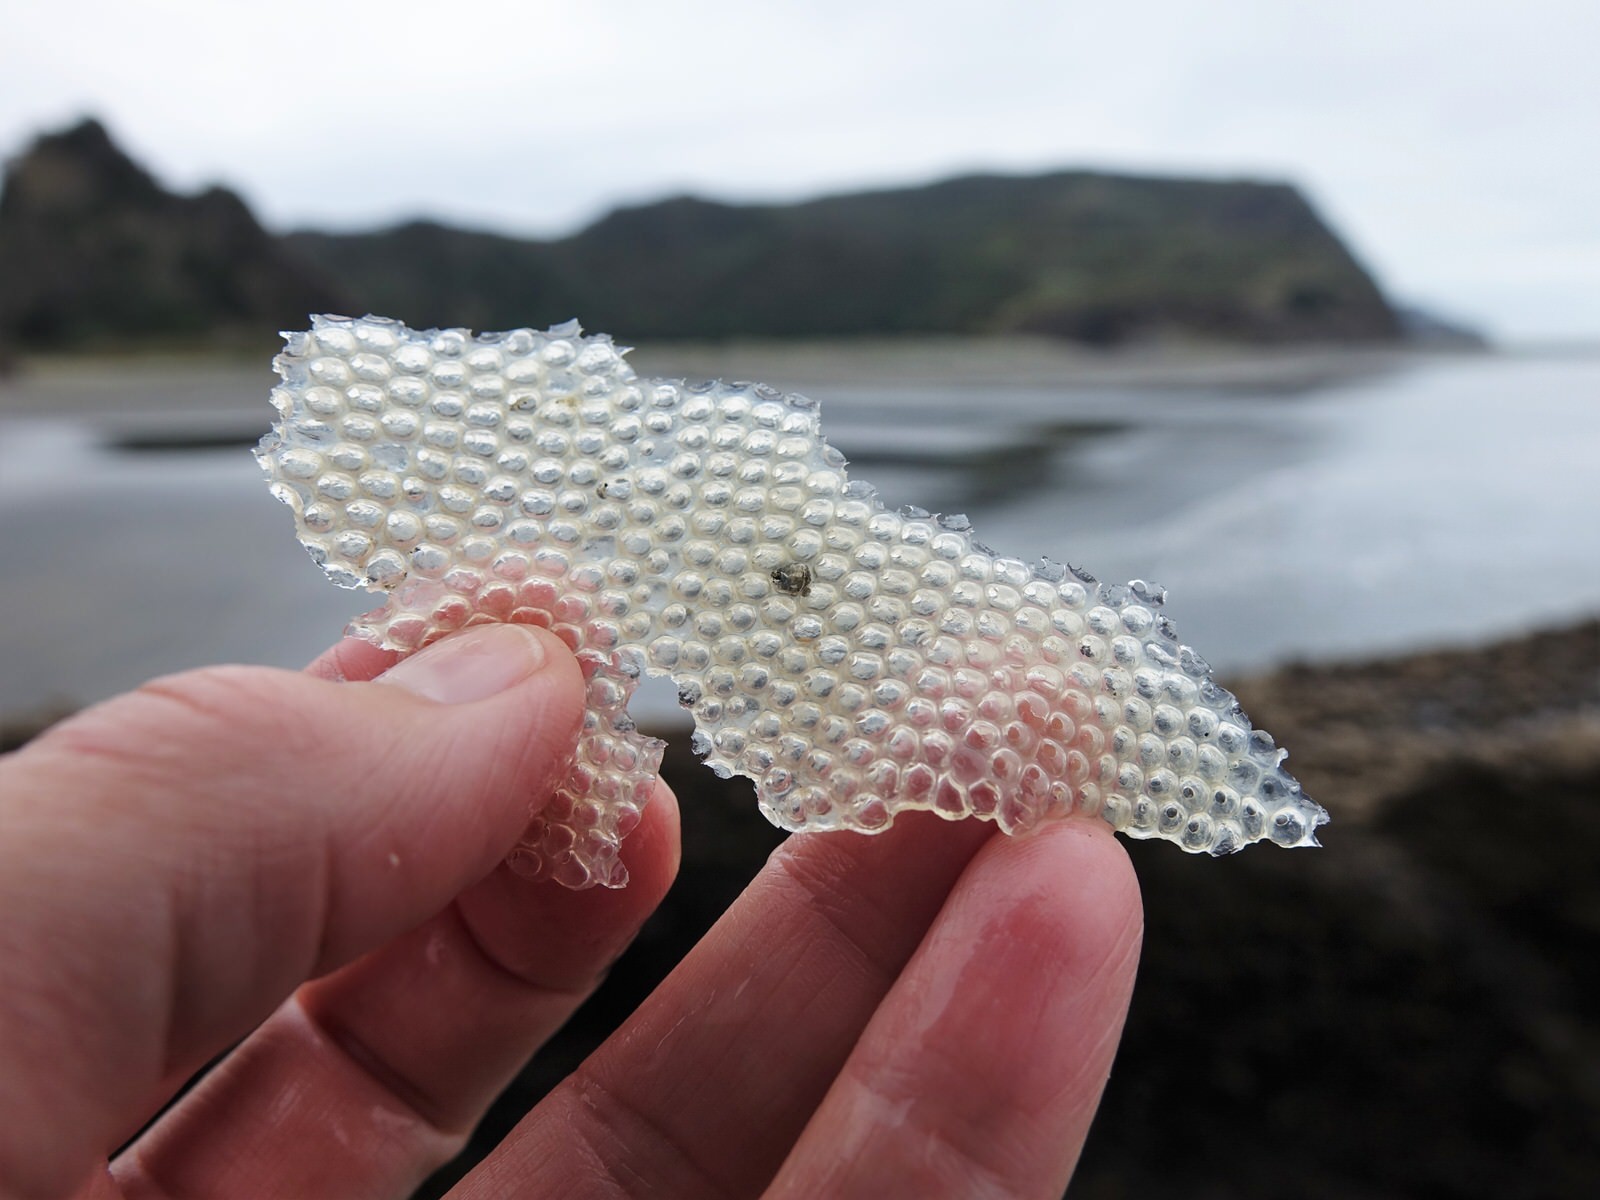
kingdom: Animalia
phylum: Mollusca
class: Gastropoda
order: Littorinimorpha
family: Tonnidae
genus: Tonna
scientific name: Tonna tankervillii
